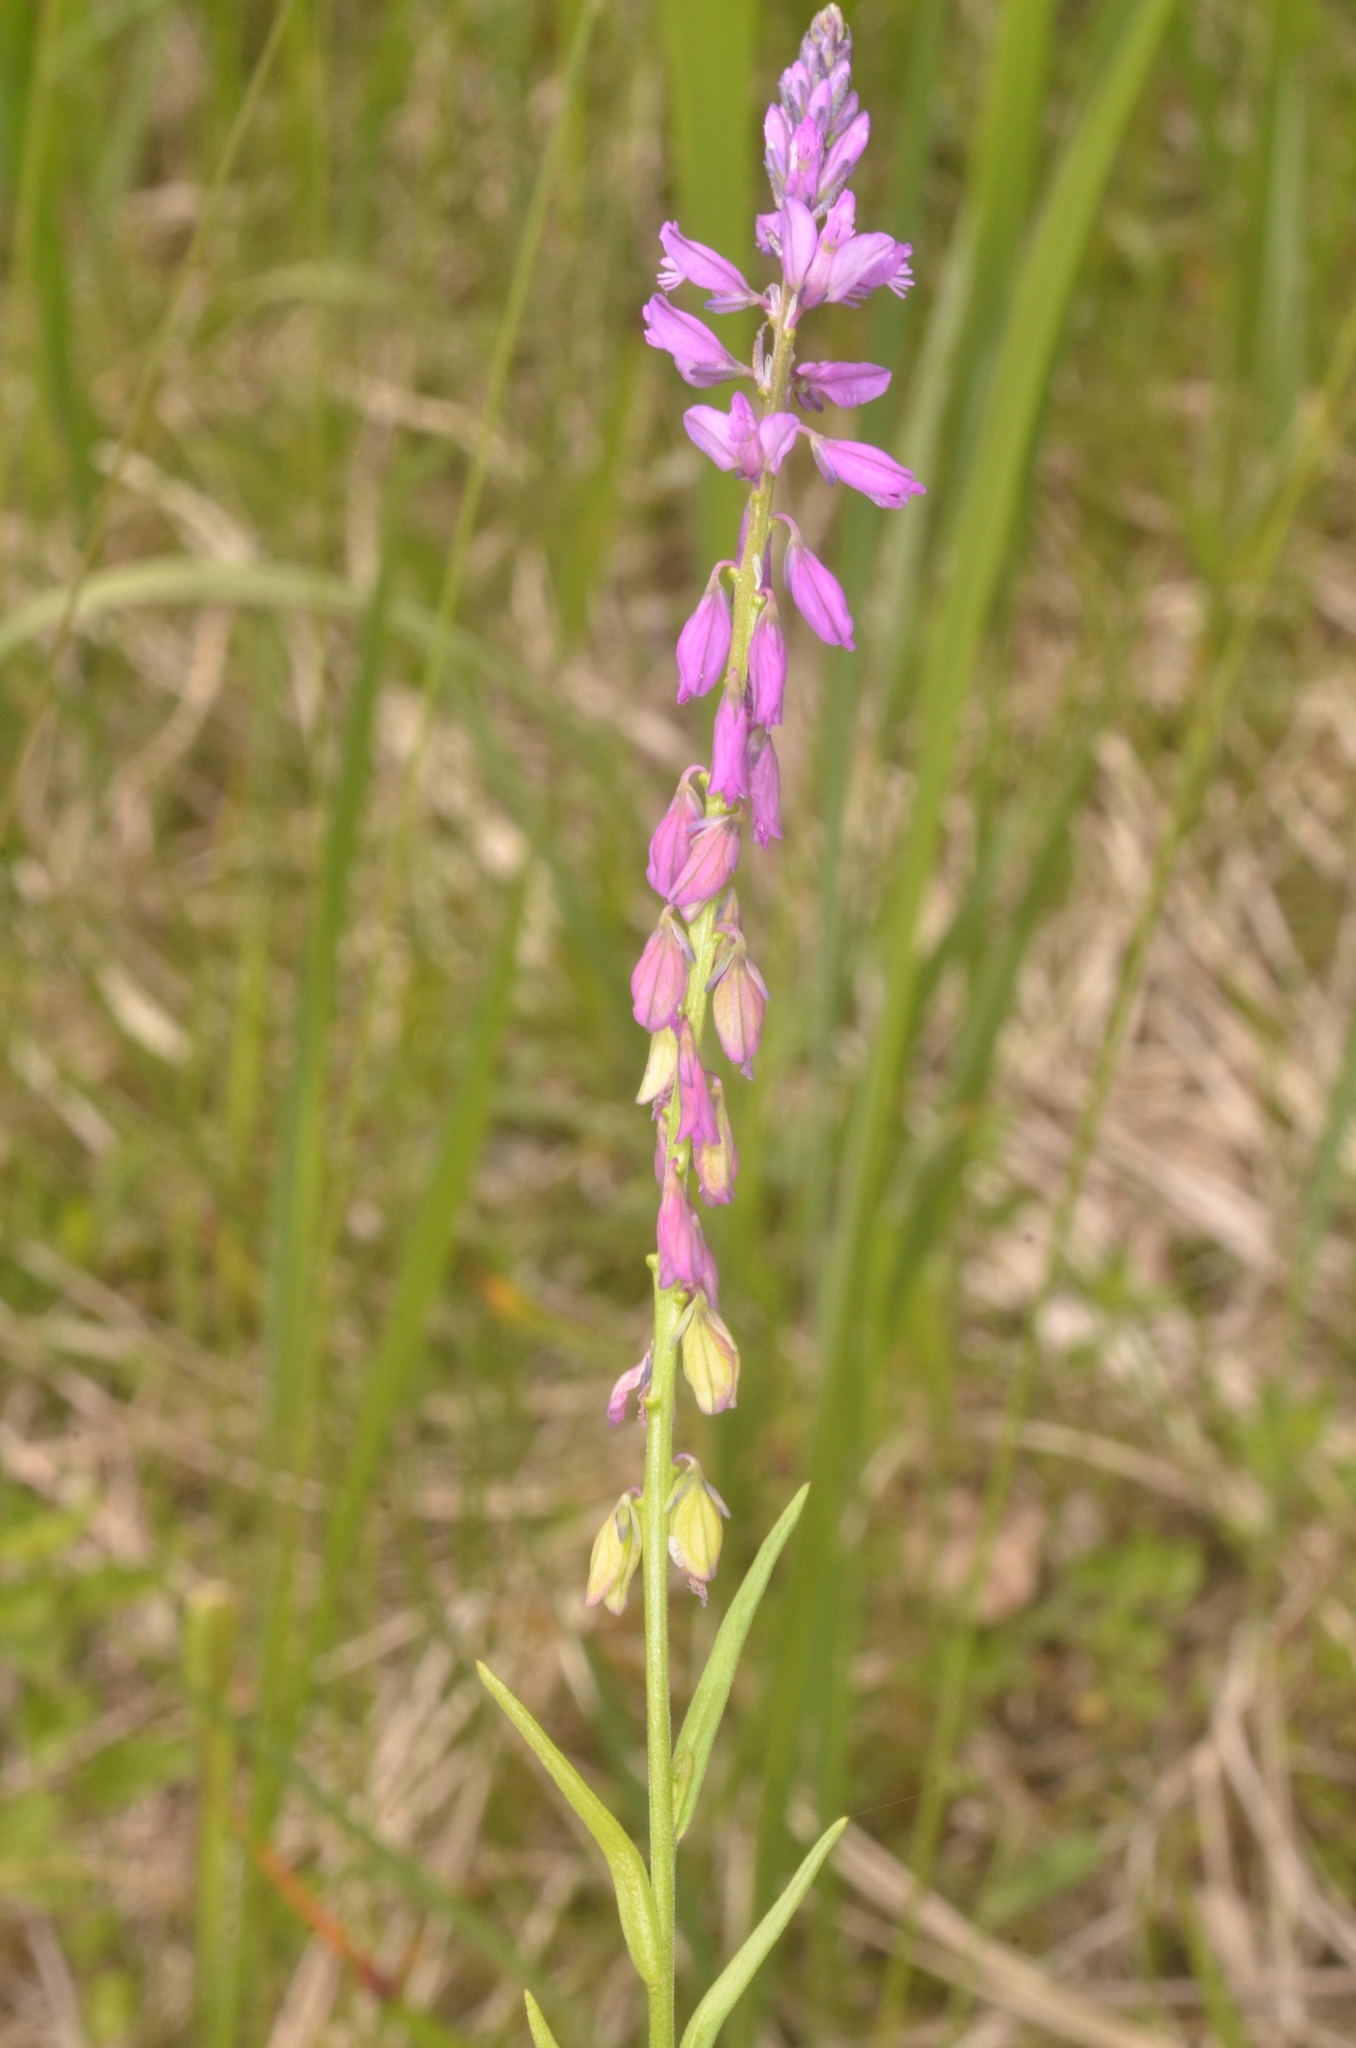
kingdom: Plantae
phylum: Tracheophyta
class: Magnoliopsida
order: Fabales
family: Polygalaceae
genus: Polygala
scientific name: Polygala comosa
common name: Tufted milkwort
